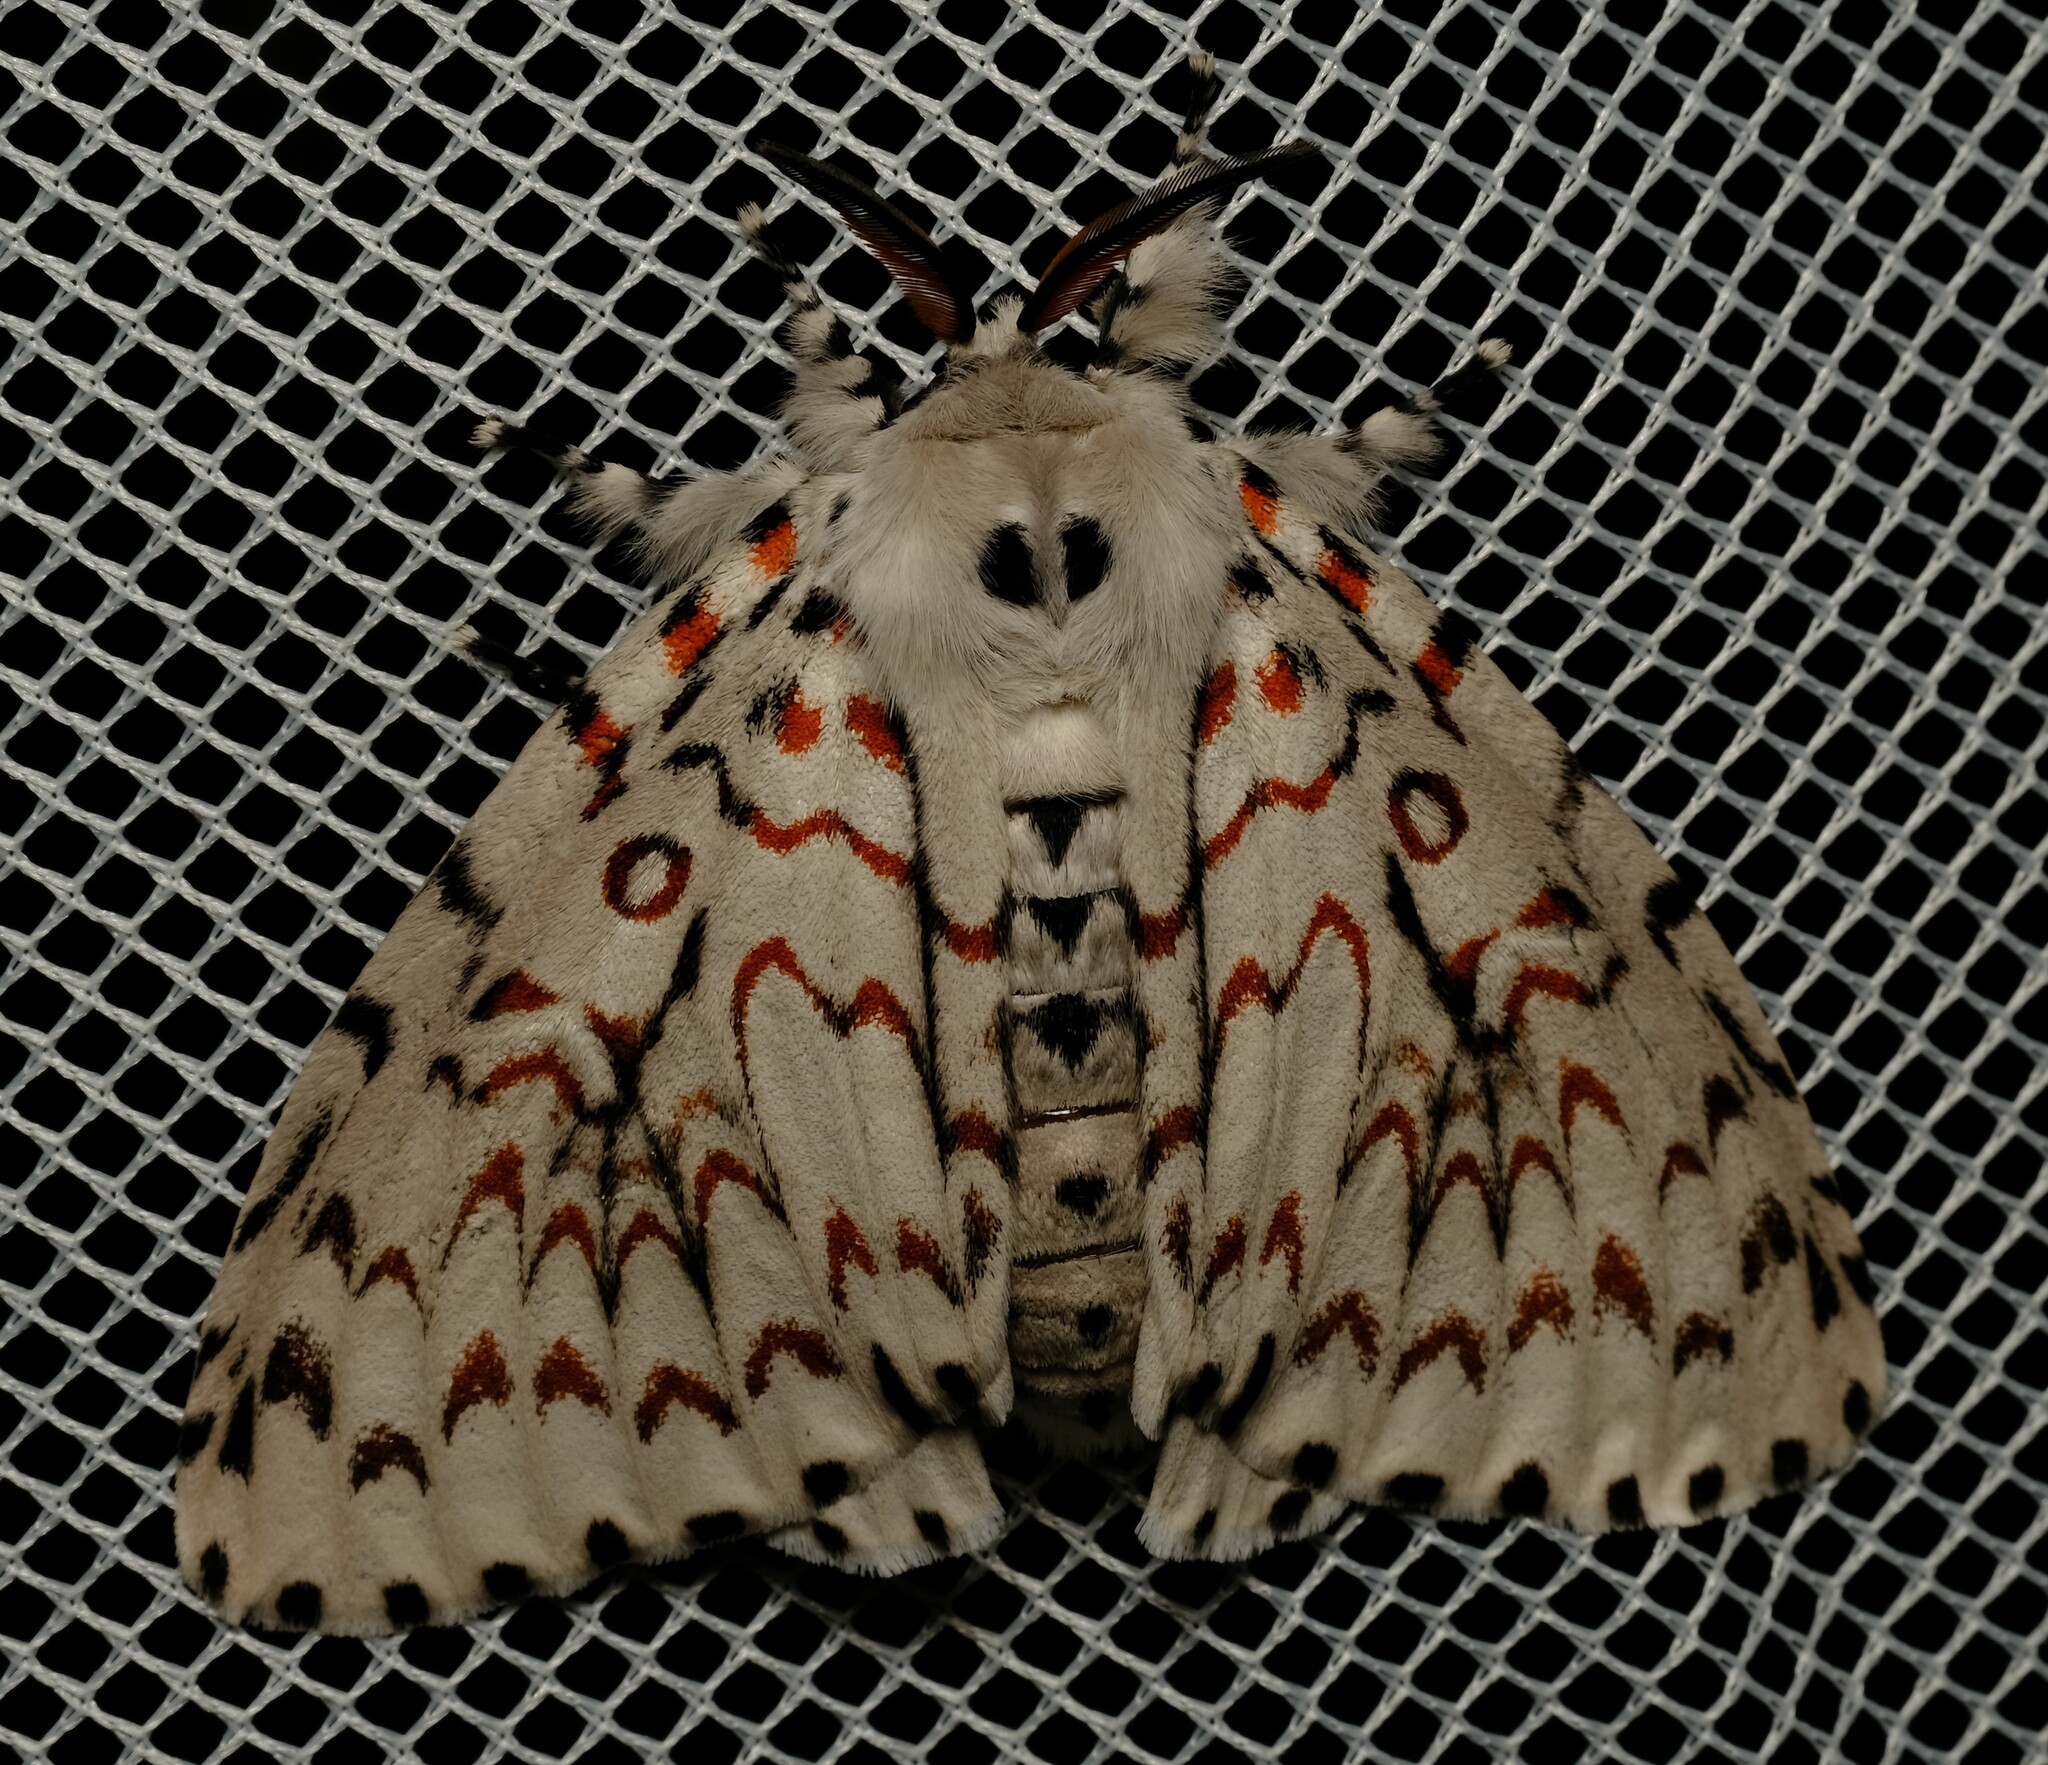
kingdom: Animalia
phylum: Arthropoda
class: Insecta
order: Lepidoptera
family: Erebidae
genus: Lymantria
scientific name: Lymantria nephrographa
